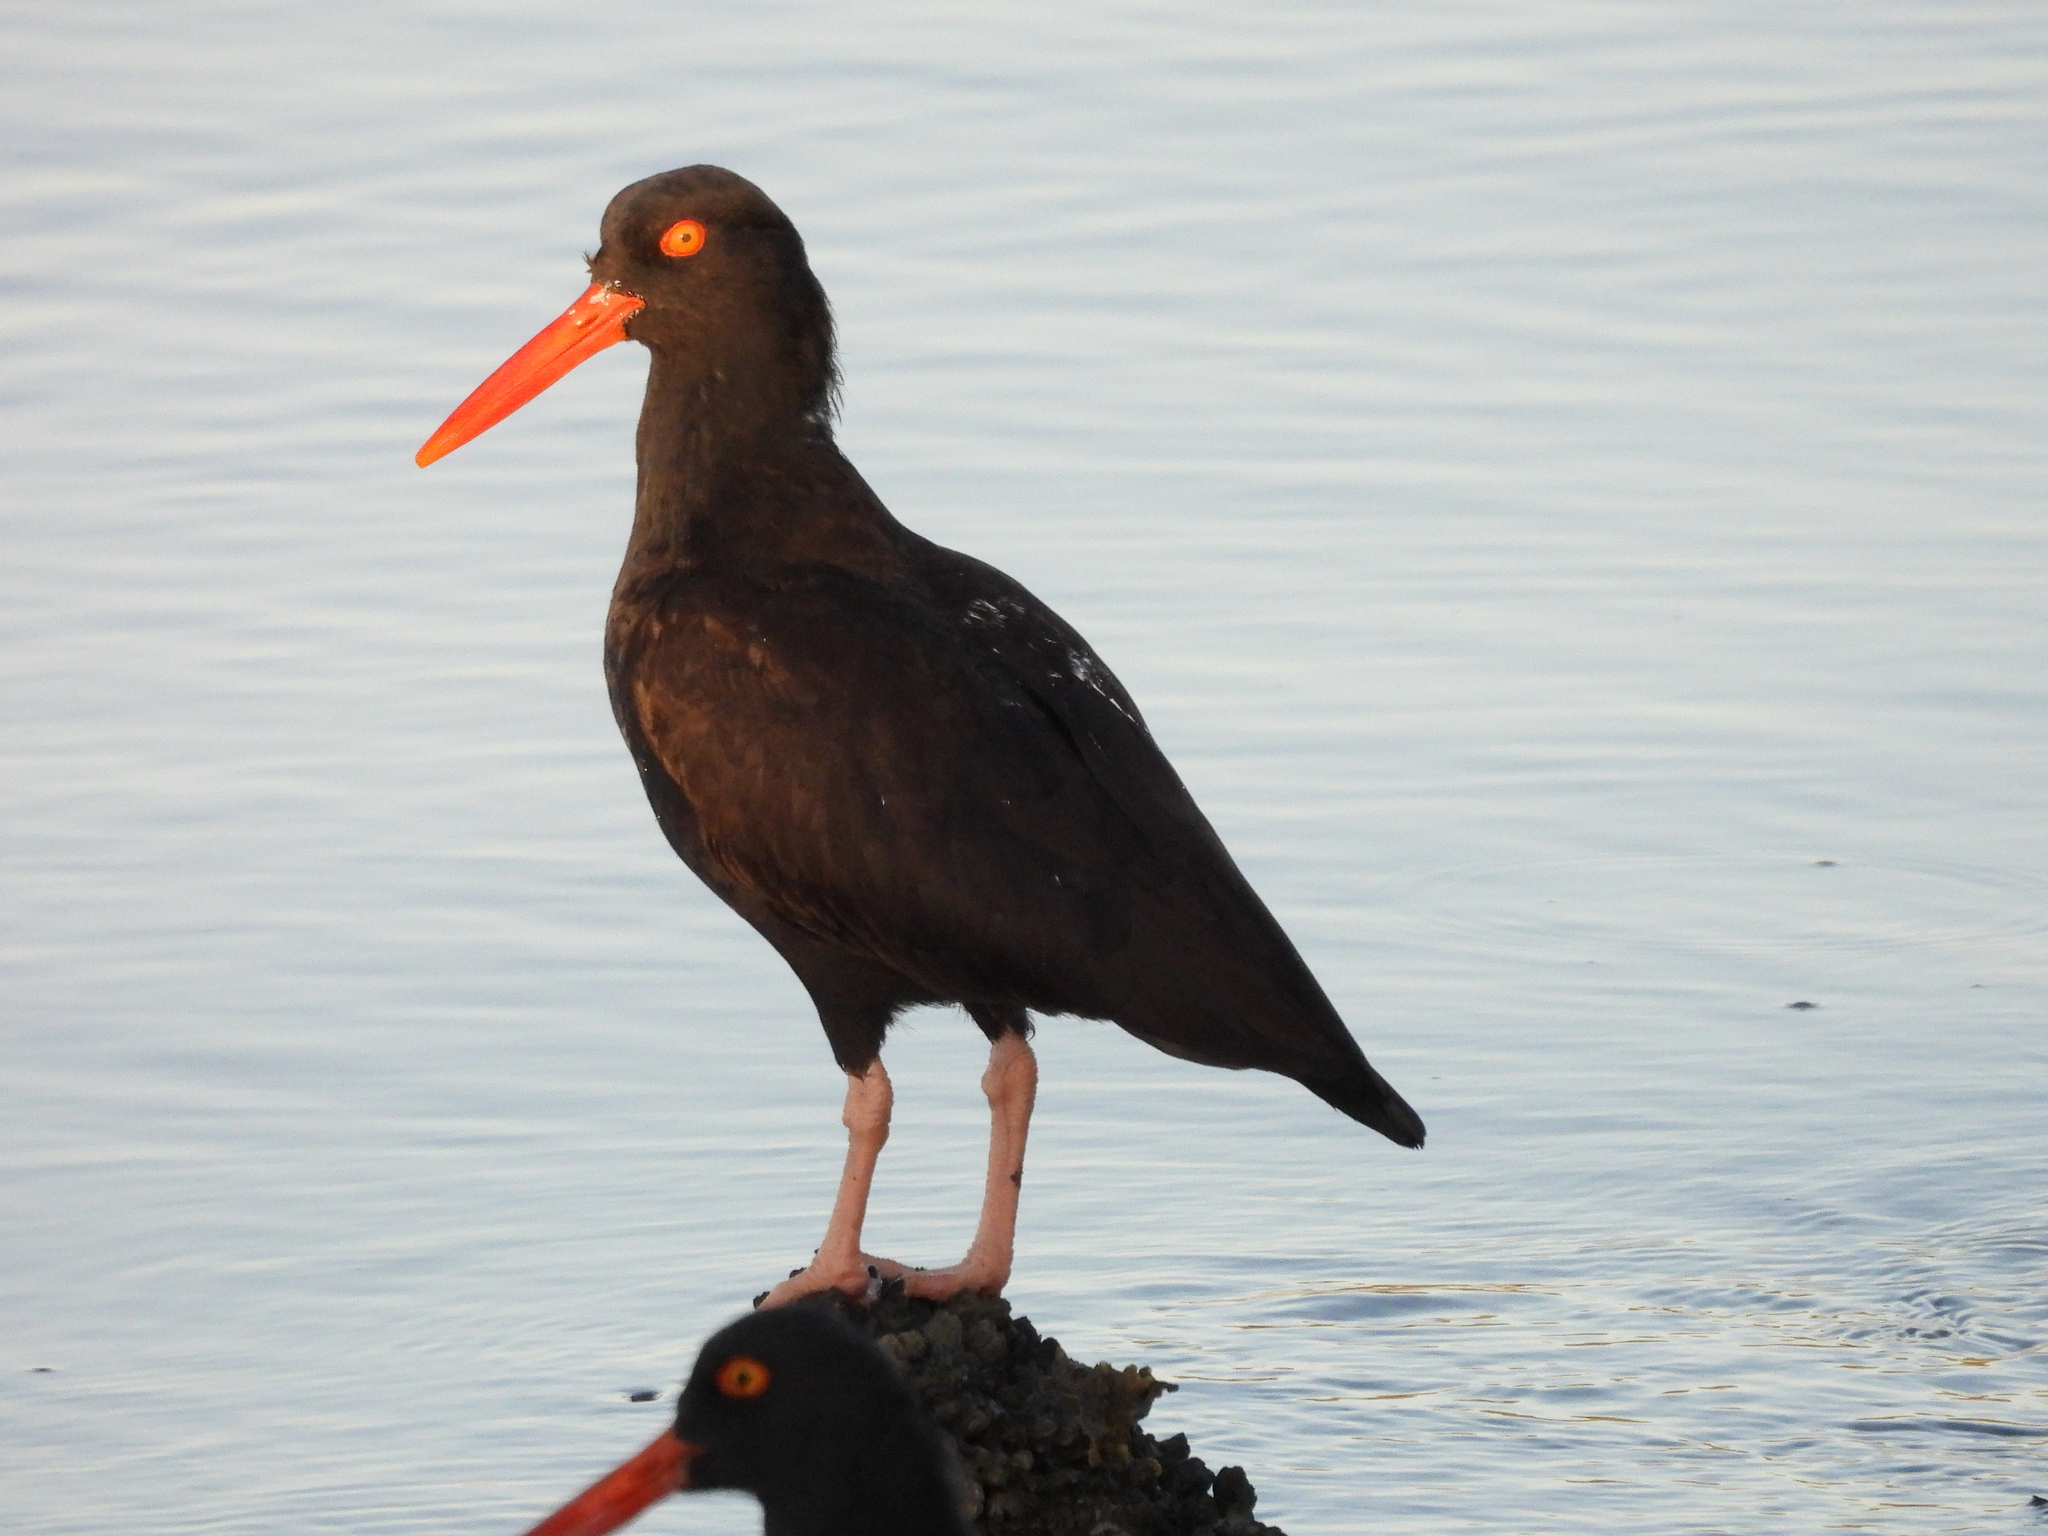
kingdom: Animalia
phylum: Chordata
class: Aves
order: Charadriiformes
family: Haematopodidae
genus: Haematopus
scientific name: Haematopus bachmani
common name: Black oystercatcher
